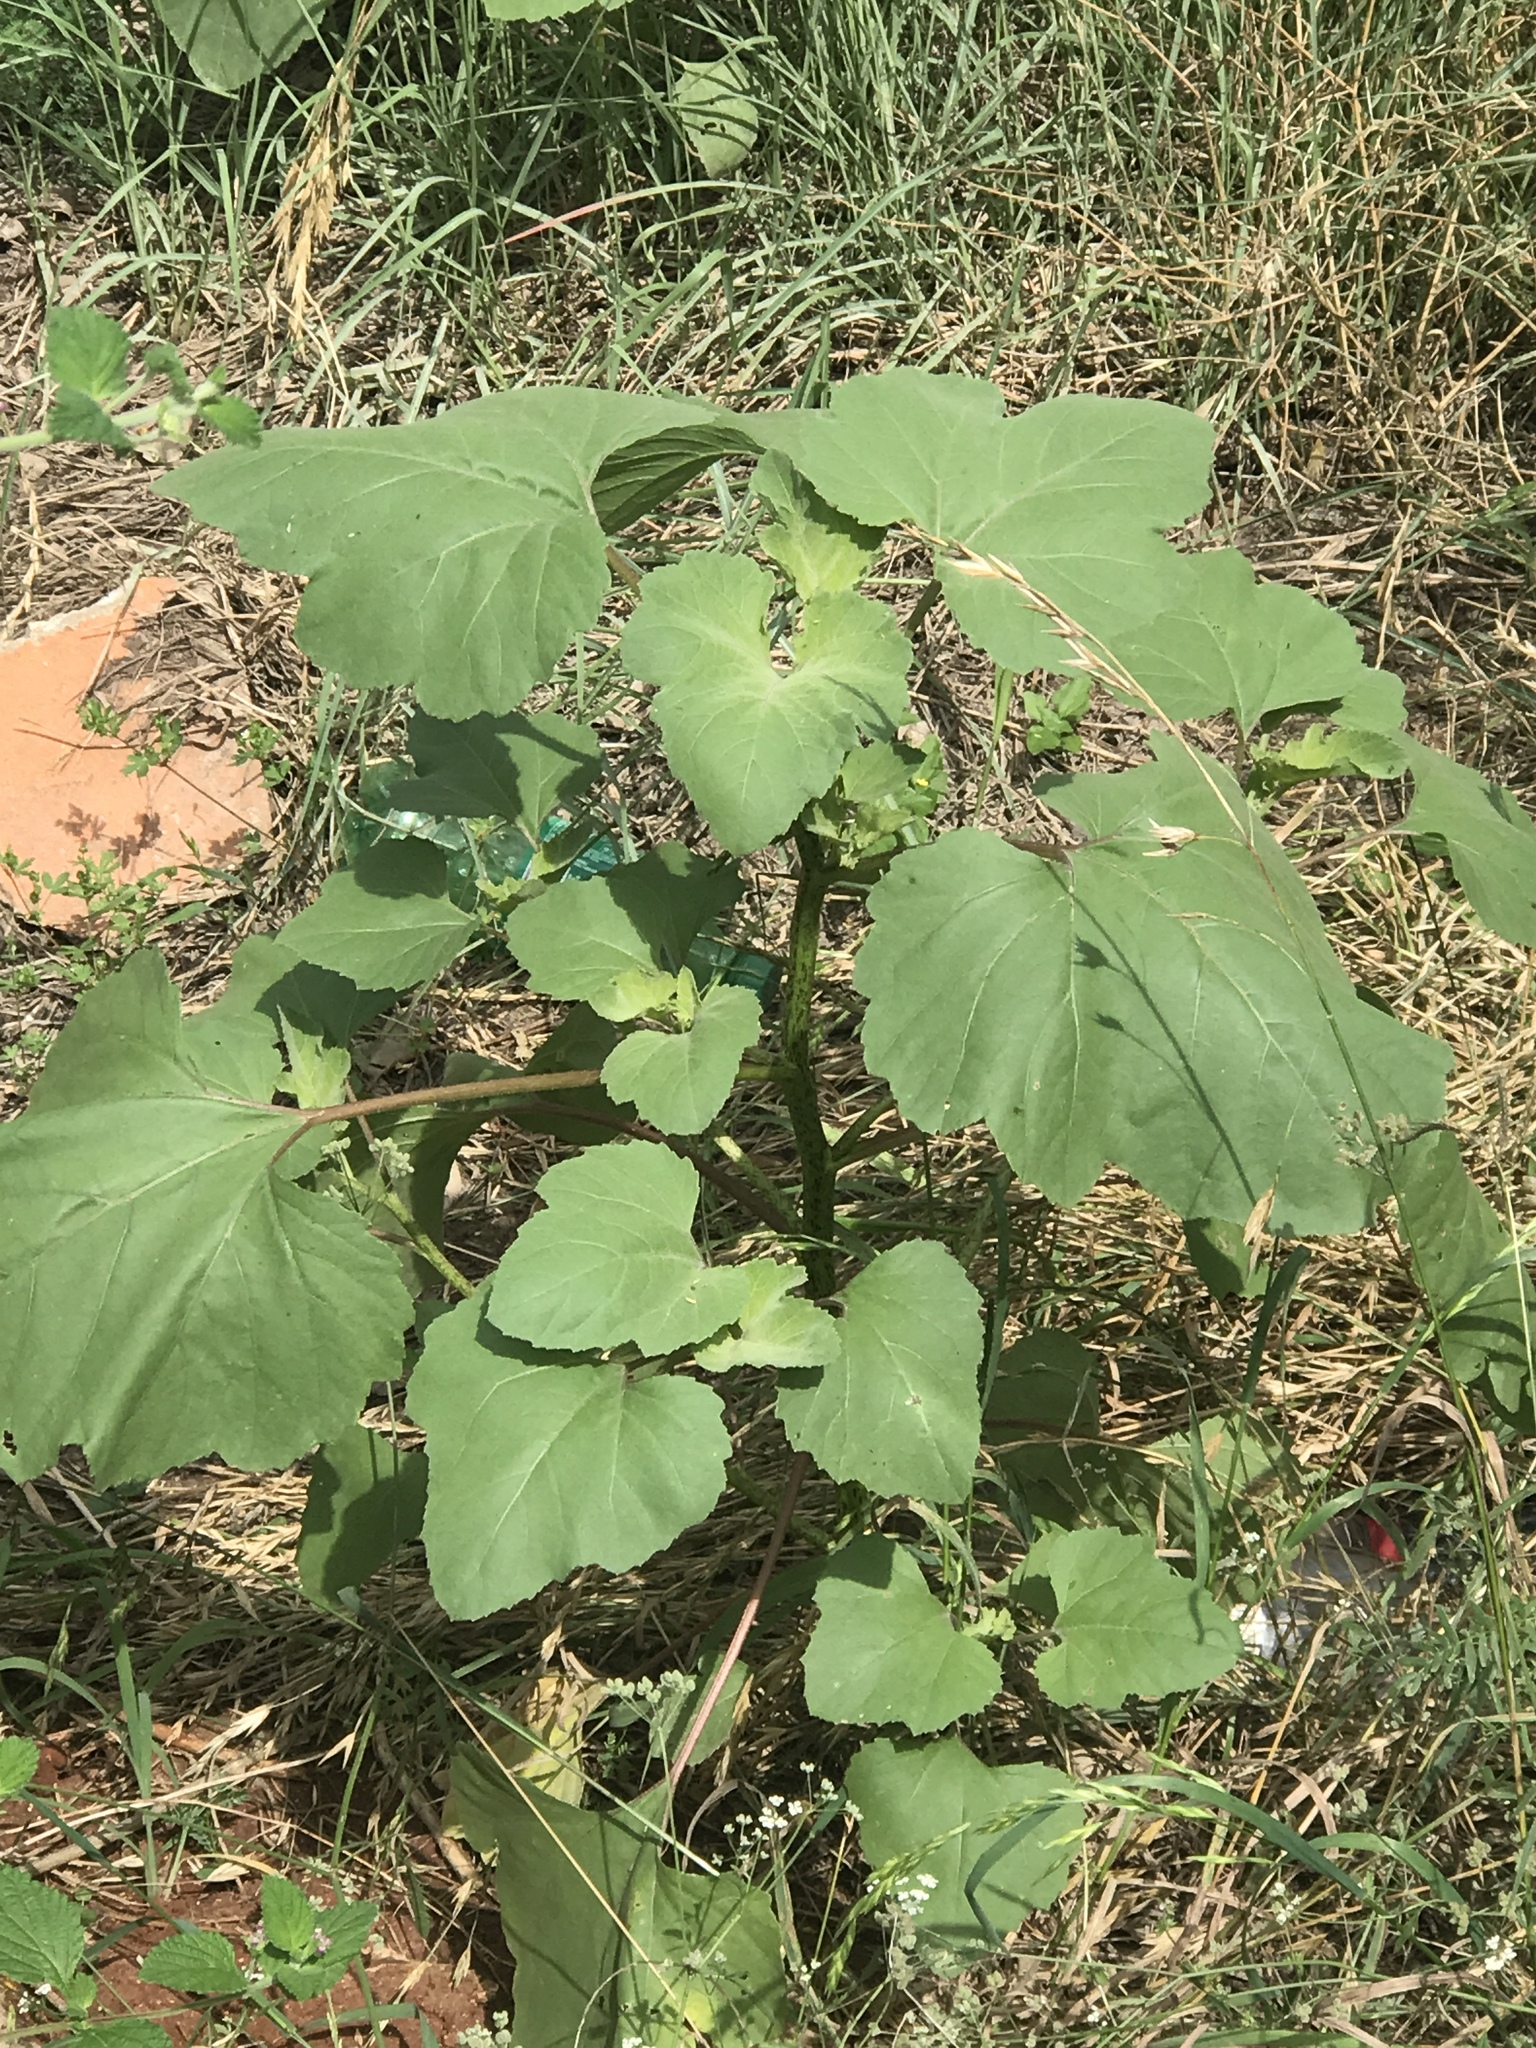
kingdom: Plantae
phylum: Tracheophyta
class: Magnoliopsida
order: Asterales
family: Asteraceae
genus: Helianthus
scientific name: Helianthus annuus
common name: Sunflower
